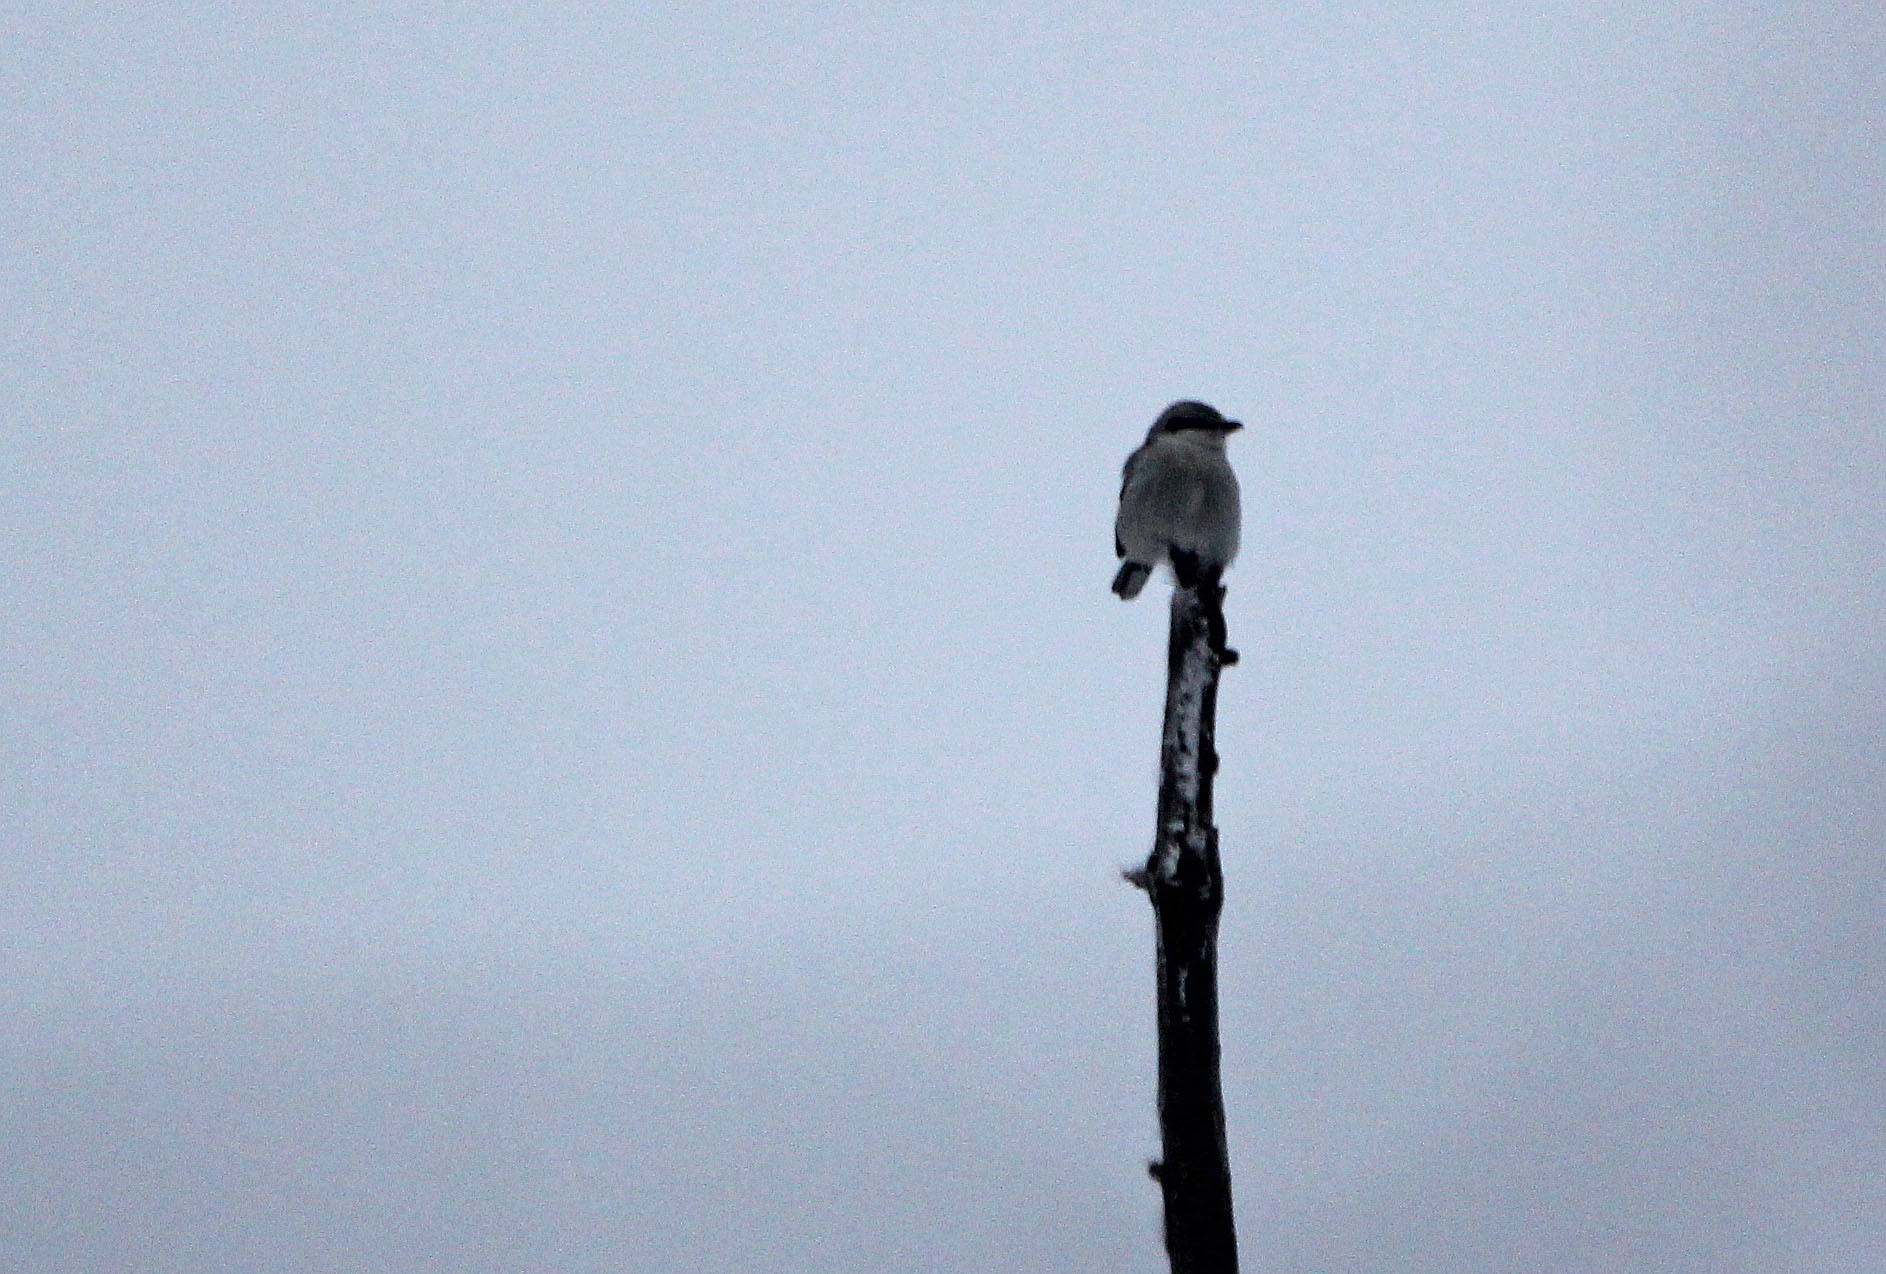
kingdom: Animalia
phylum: Chordata
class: Aves
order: Passeriformes
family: Laniidae
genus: Lanius
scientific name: Lanius borealis
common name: Northern shrike
